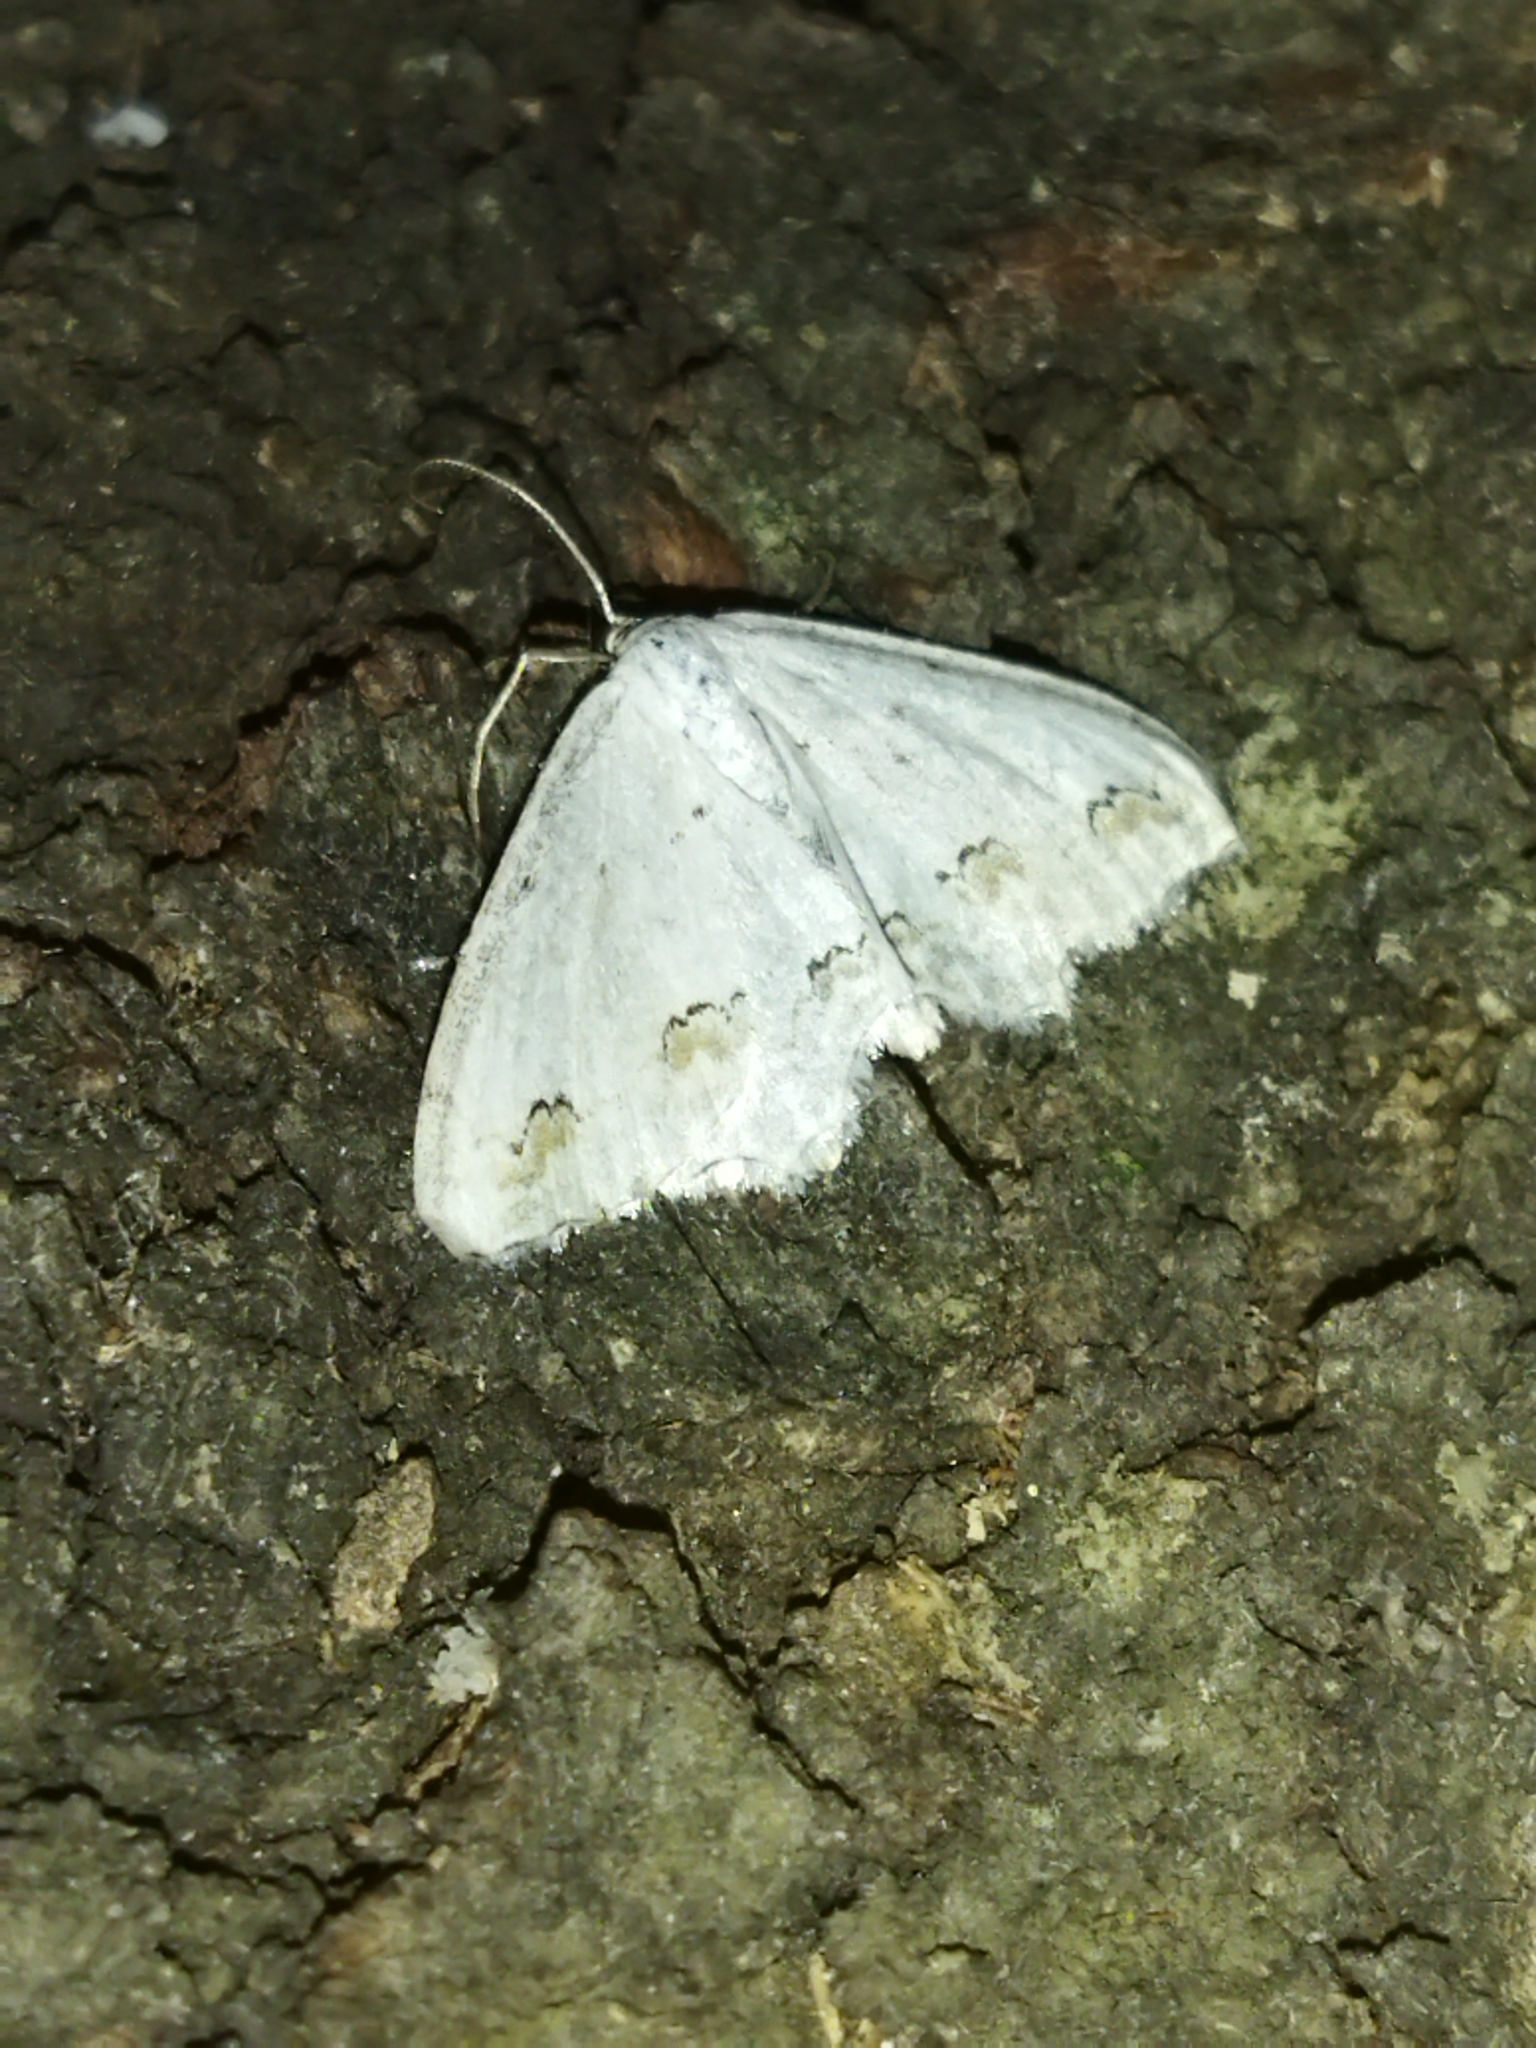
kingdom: Animalia
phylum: Arthropoda
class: Insecta
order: Lepidoptera
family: Geometridae
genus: Scopula
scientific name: Scopula ornata
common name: Lace border
